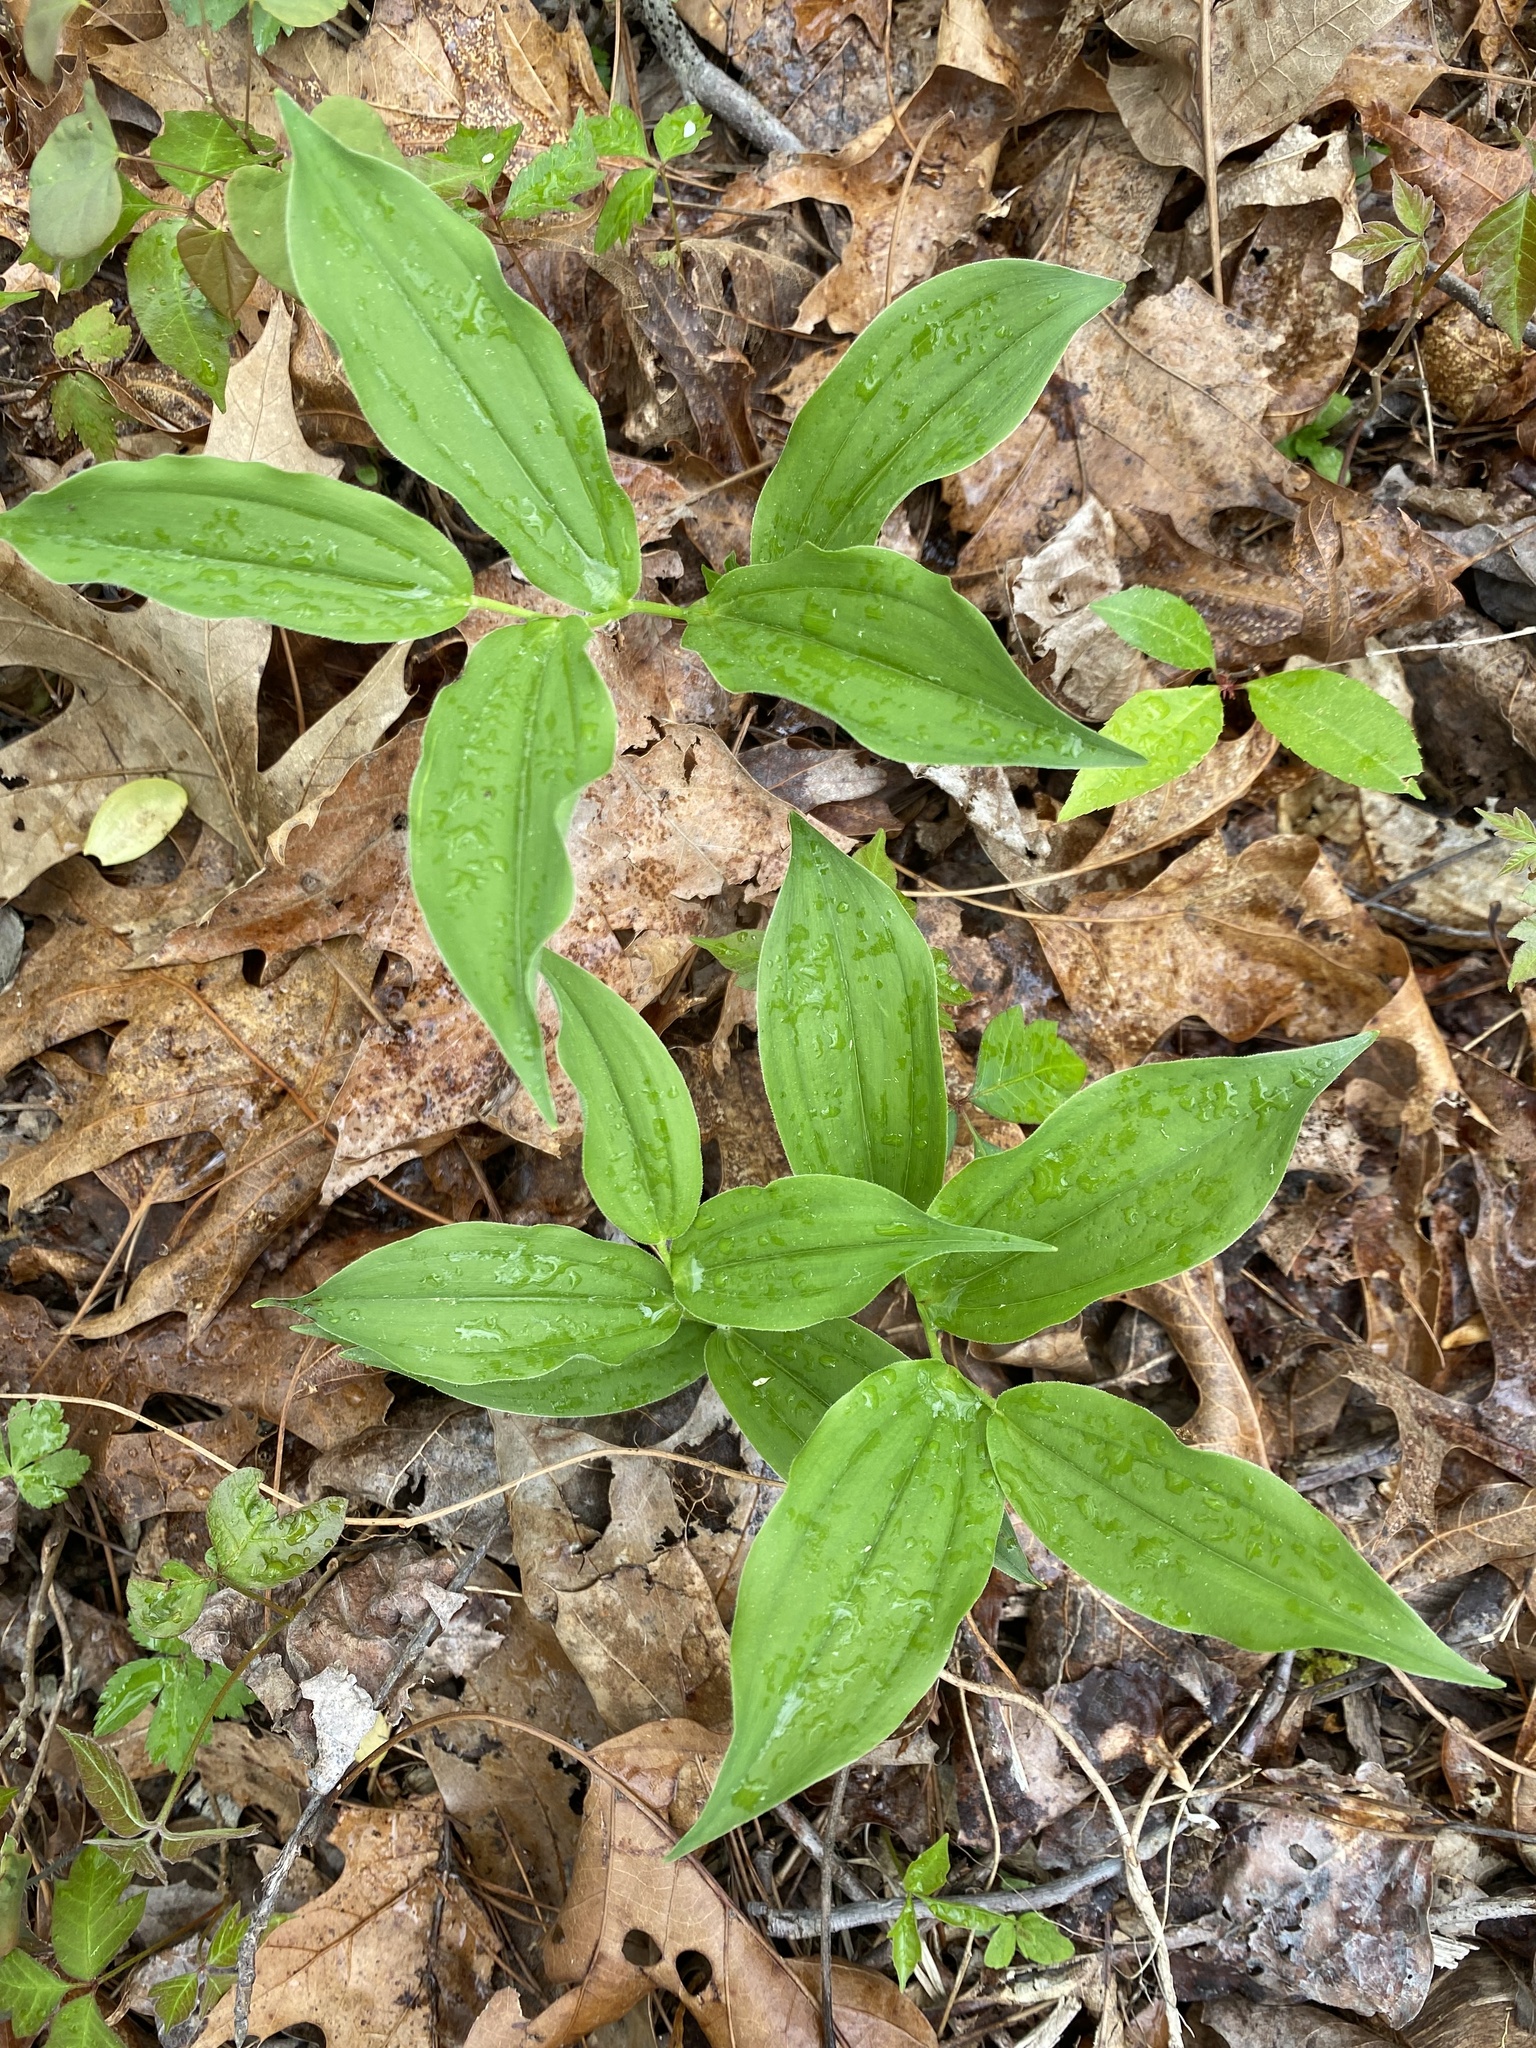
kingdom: Plantae
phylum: Tracheophyta
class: Liliopsida
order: Asparagales
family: Asparagaceae
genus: Maianthemum
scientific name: Maianthemum racemosum
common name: False spikenard
